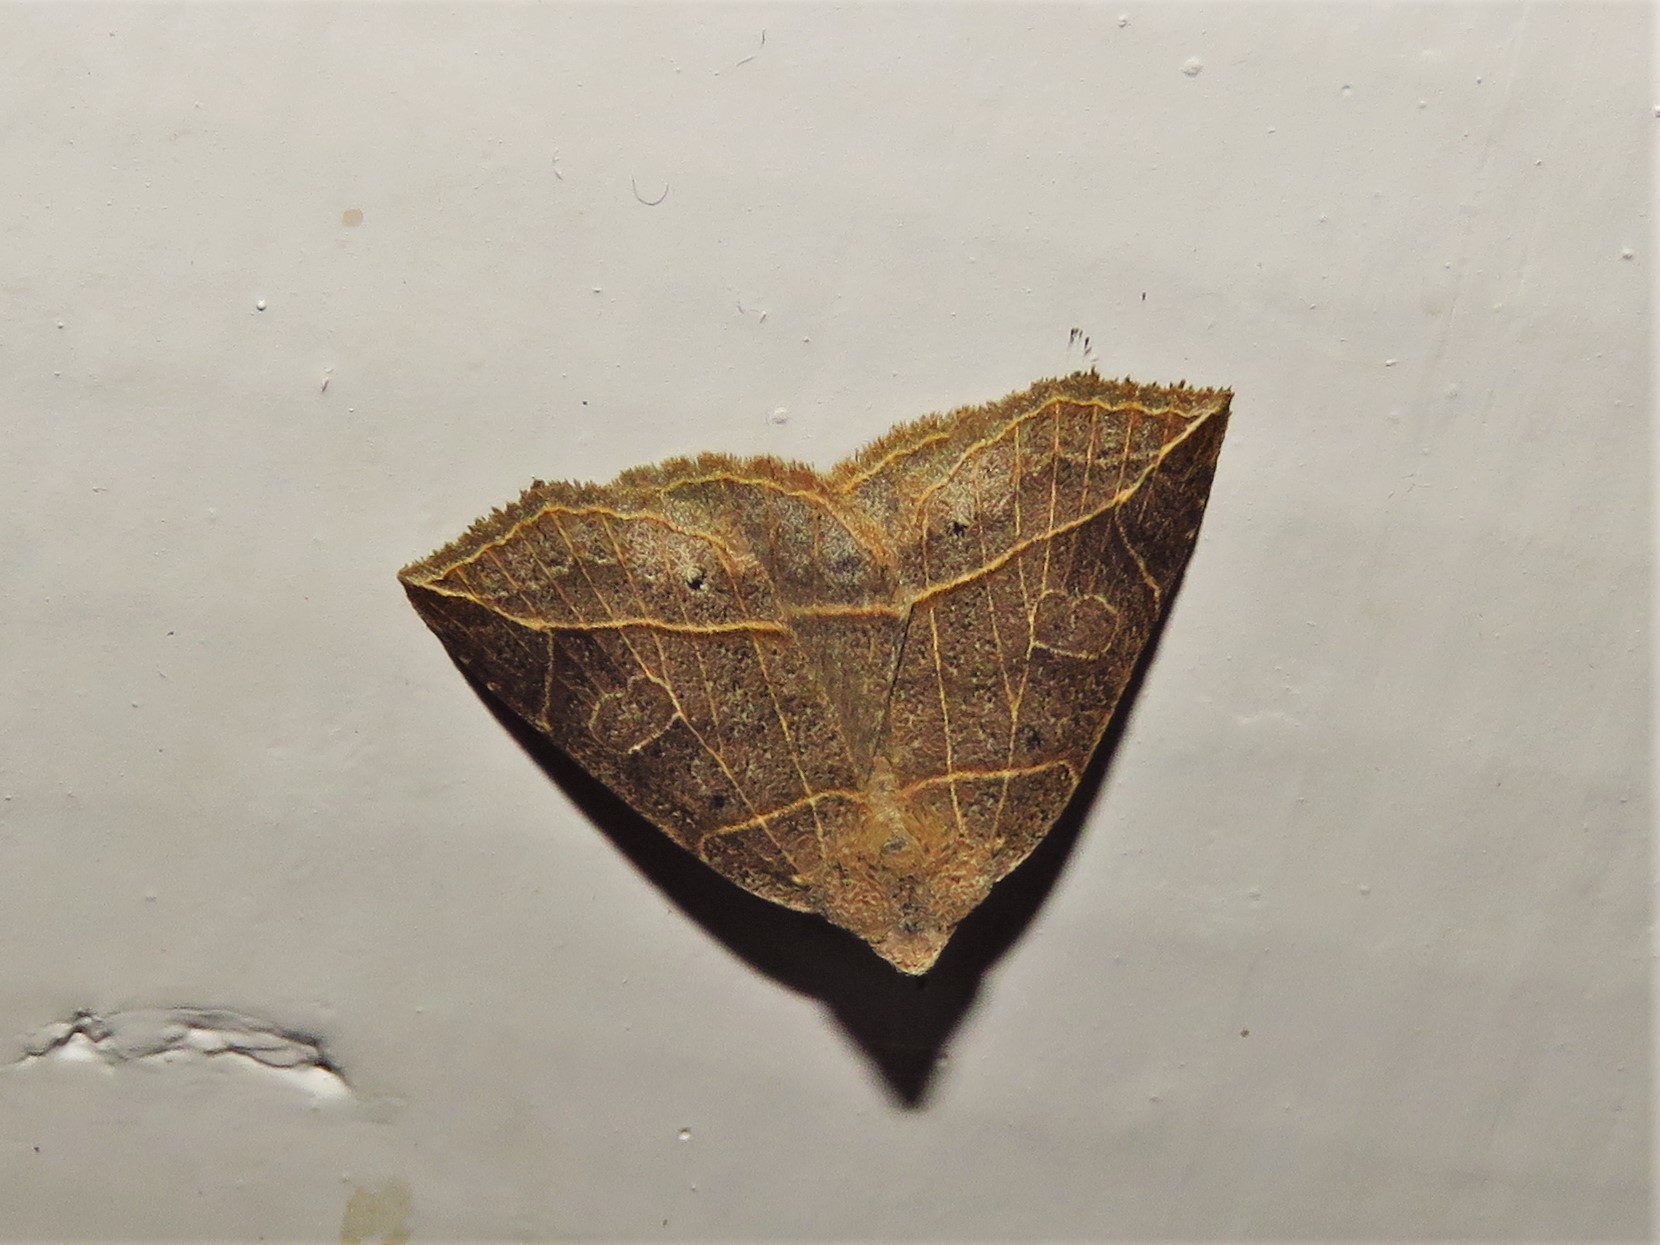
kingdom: Animalia
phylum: Arthropoda
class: Insecta
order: Lepidoptera
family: Erebidae
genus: Isogona
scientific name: Isogona tenuis
